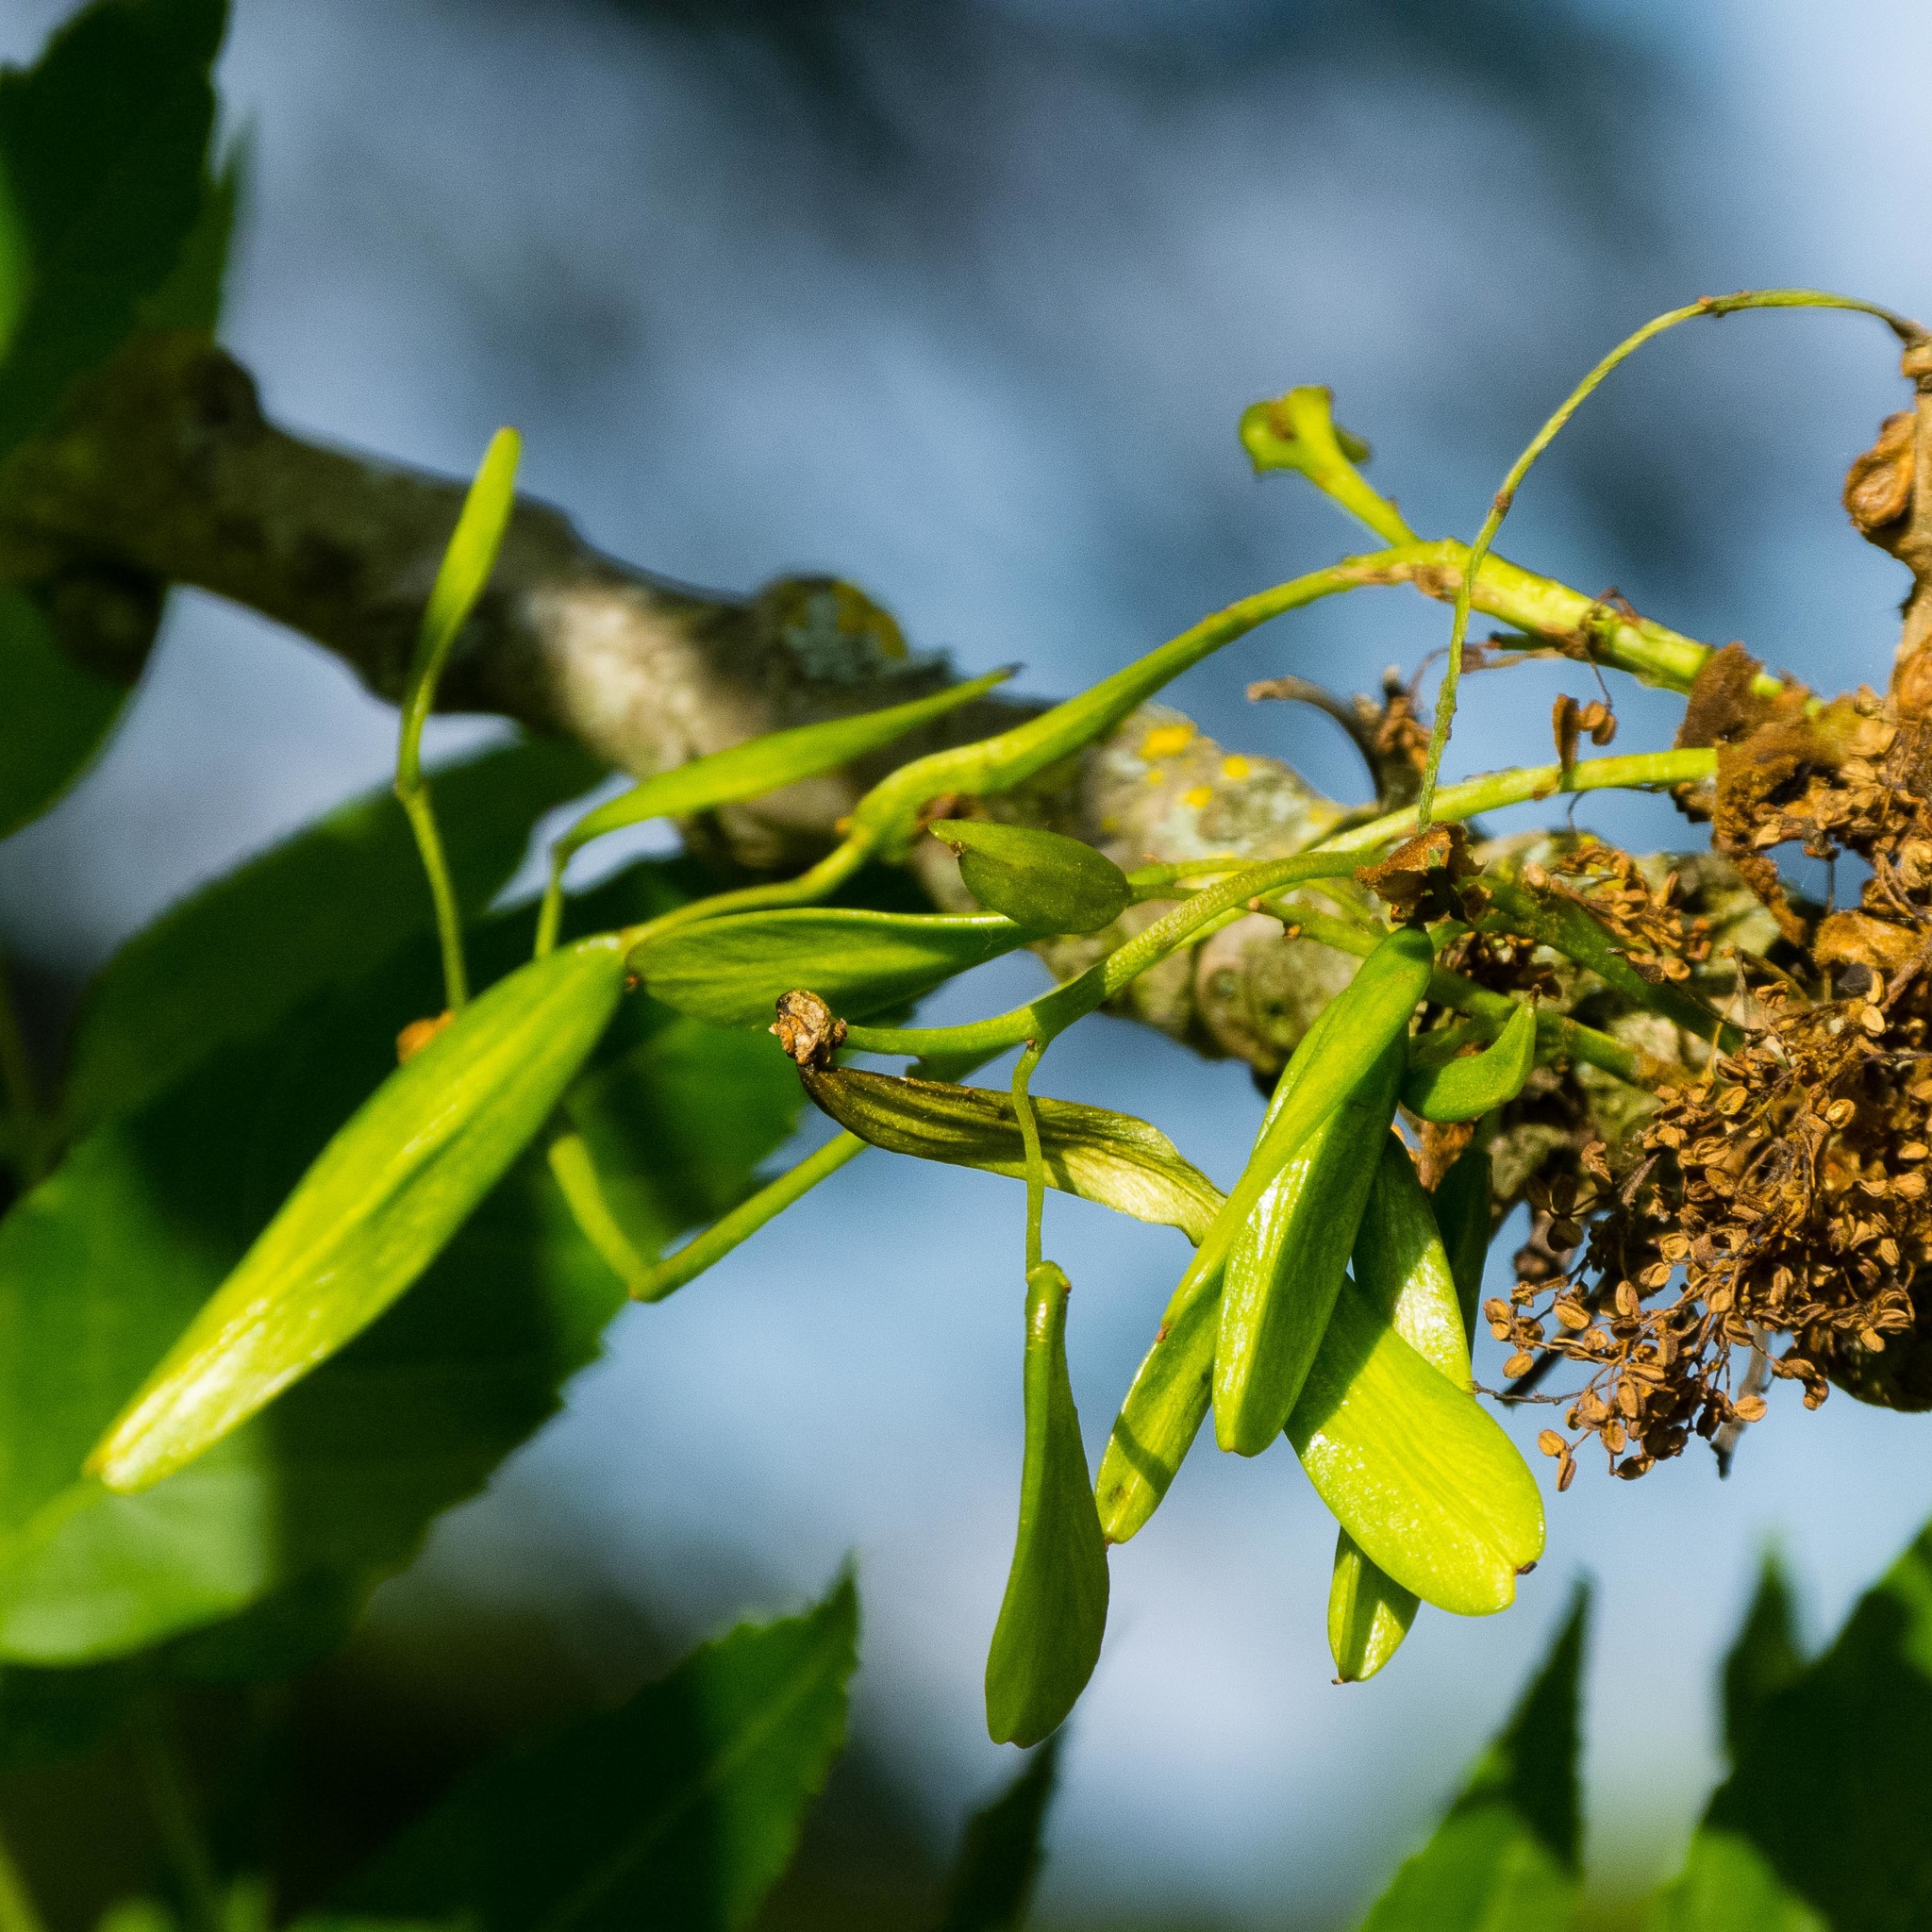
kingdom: Plantae
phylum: Tracheophyta
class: Magnoliopsida
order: Lamiales
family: Oleaceae
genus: Fraxinus
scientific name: Fraxinus excelsior
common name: European ash
